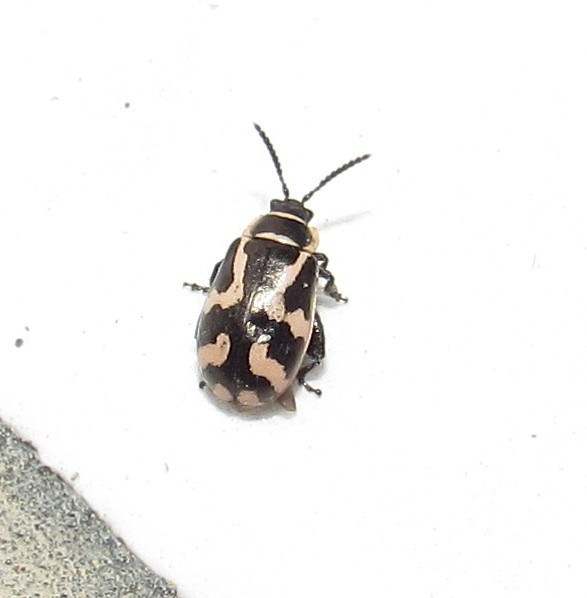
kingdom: Animalia
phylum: Arthropoda
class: Insecta
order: Coleoptera
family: Chrysomelidae
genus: Kuschelina
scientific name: Kuschelina
